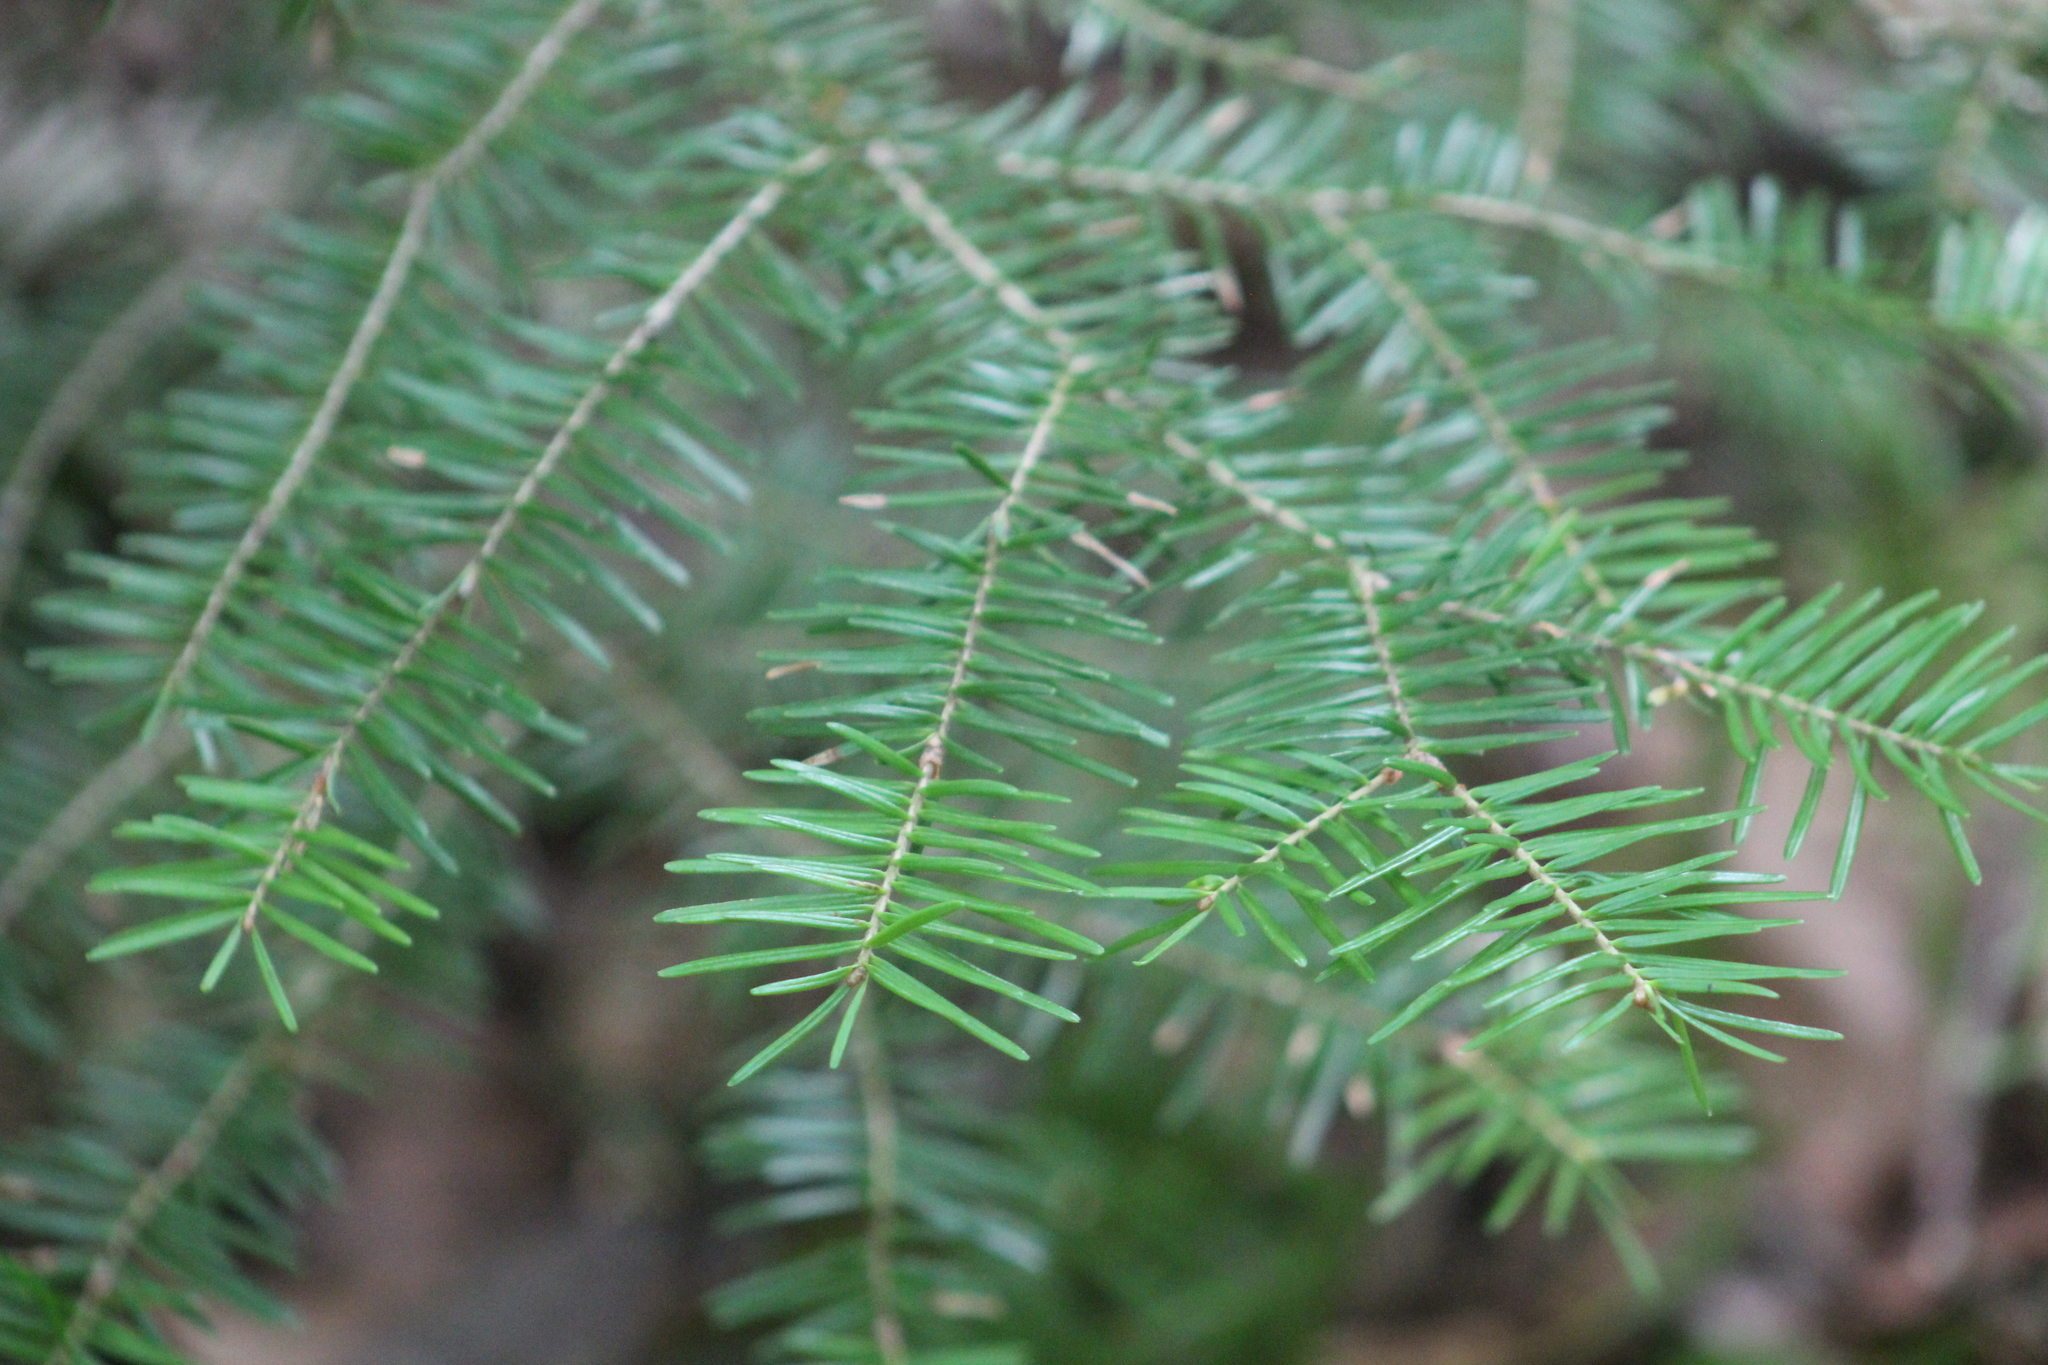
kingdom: Plantae
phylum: Tracheophyta
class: Pinopsida
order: Pinales
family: Pinaceae
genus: Abies
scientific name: Abies balsamea
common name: Balsam fir
